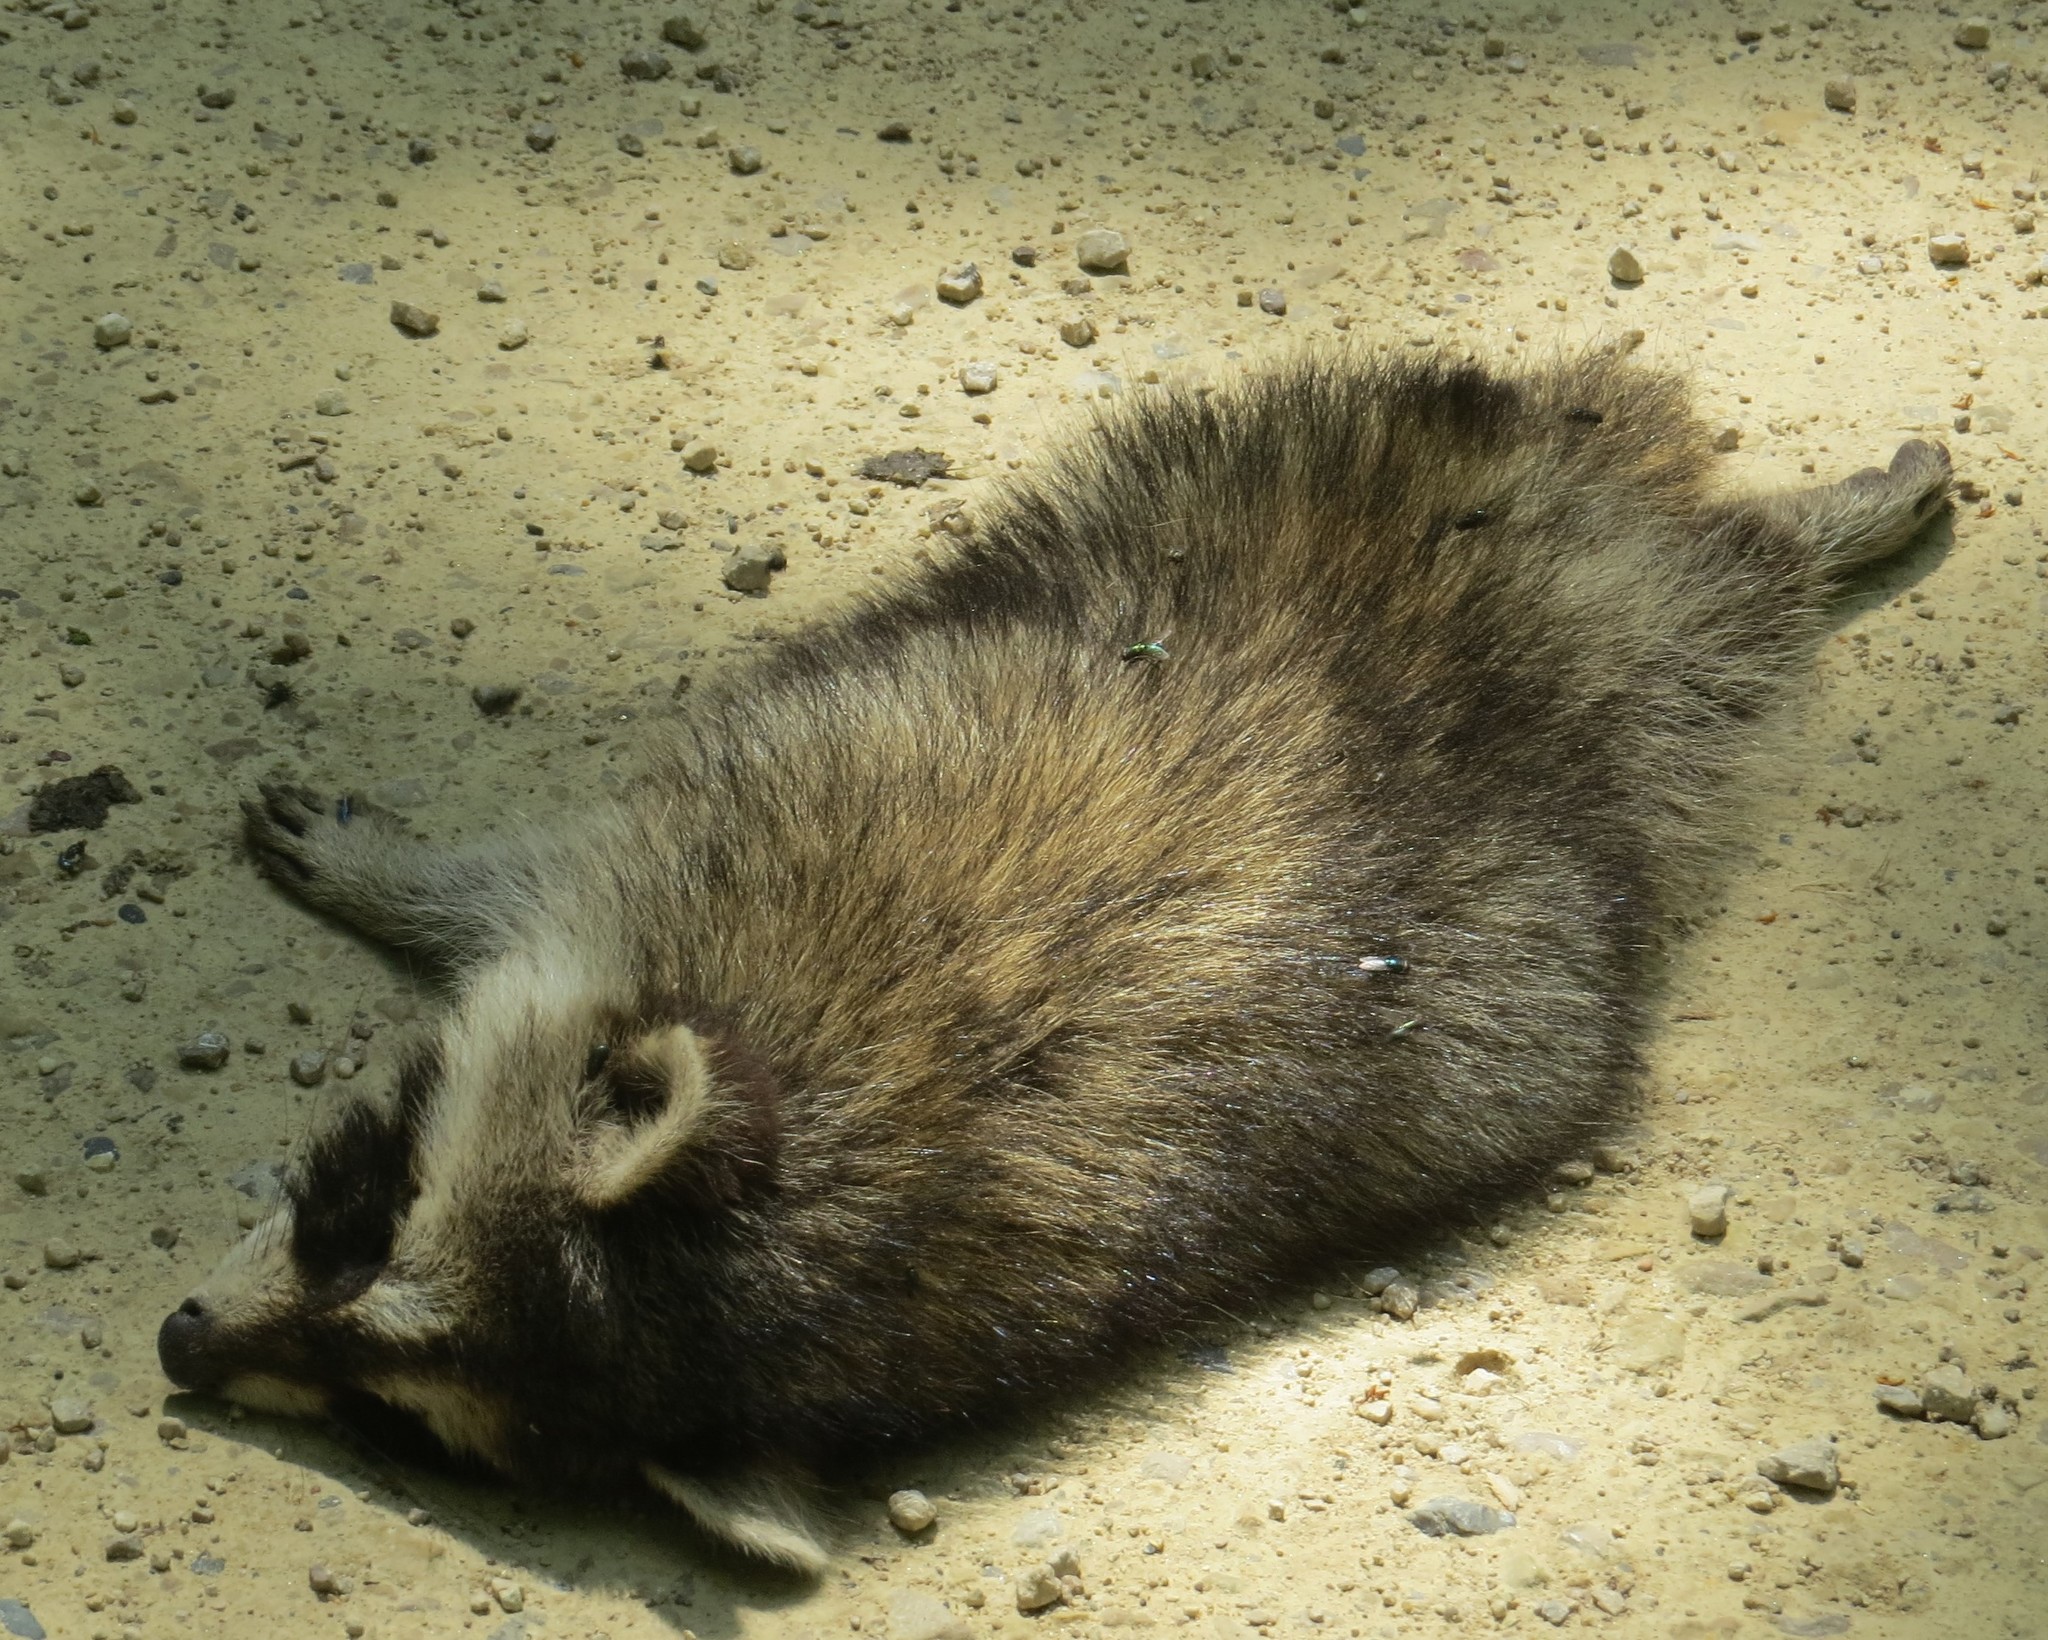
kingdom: Animalia
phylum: Chordata
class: Mammalia
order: Carnivora
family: Procyonidae
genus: Procyon
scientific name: Procyon lotor
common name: Raccoon
